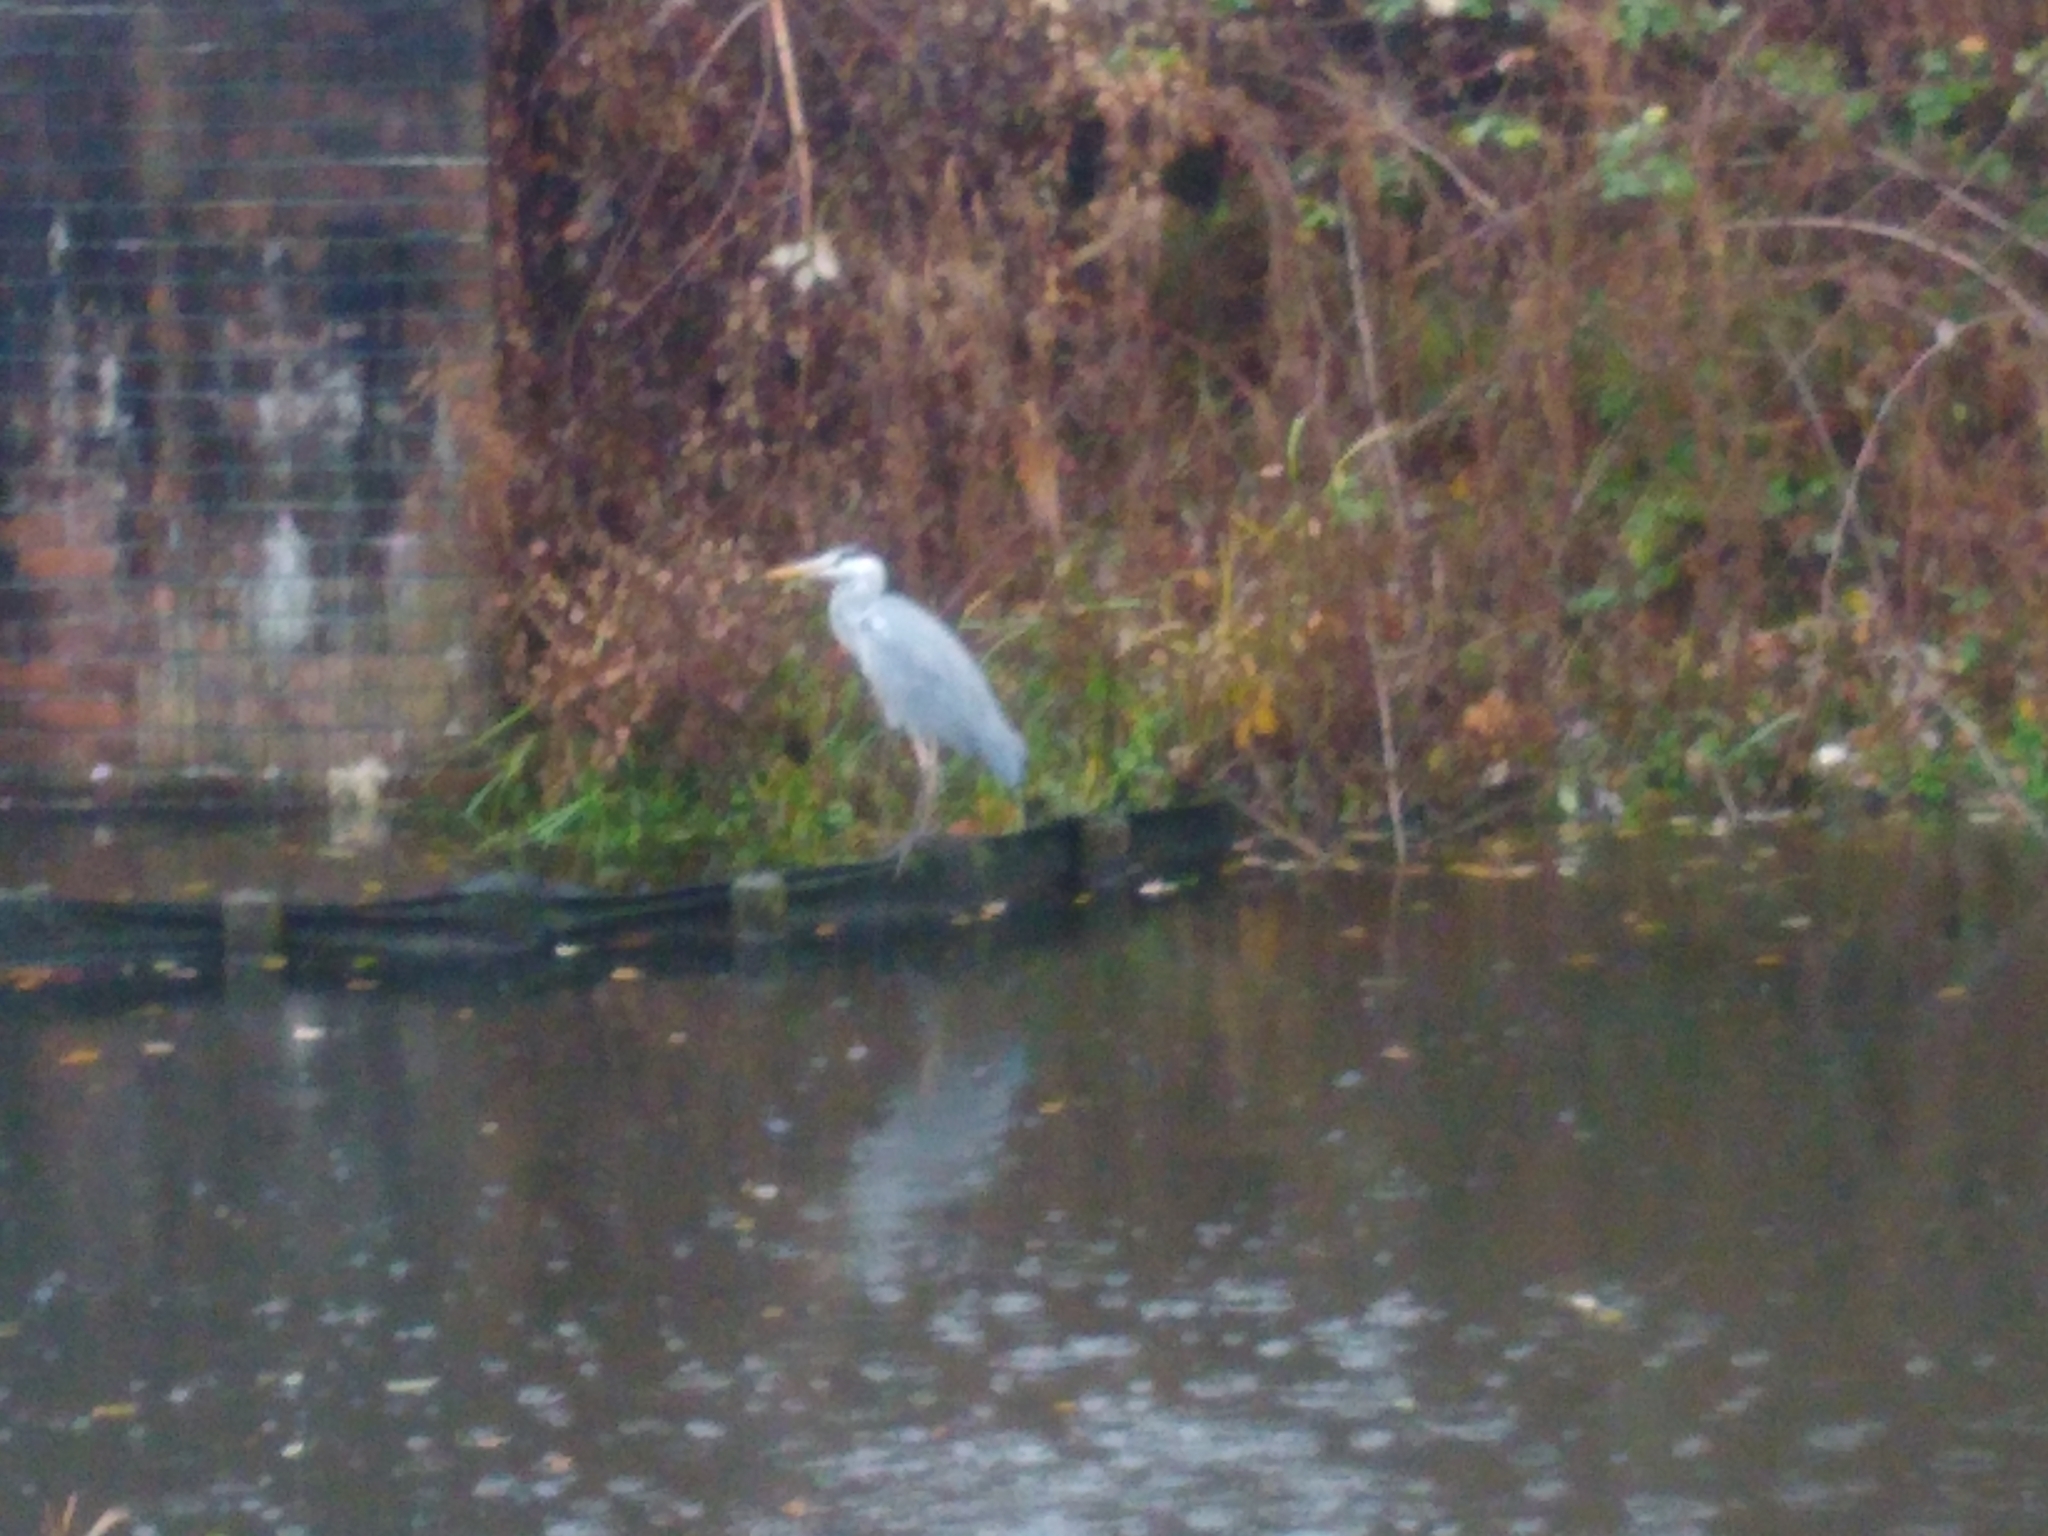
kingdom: Animalia
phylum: Chordata
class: Aves
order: Pelecaniformes
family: Ardeidae
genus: Ardea
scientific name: Ardea cinerea
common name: Grey heron
